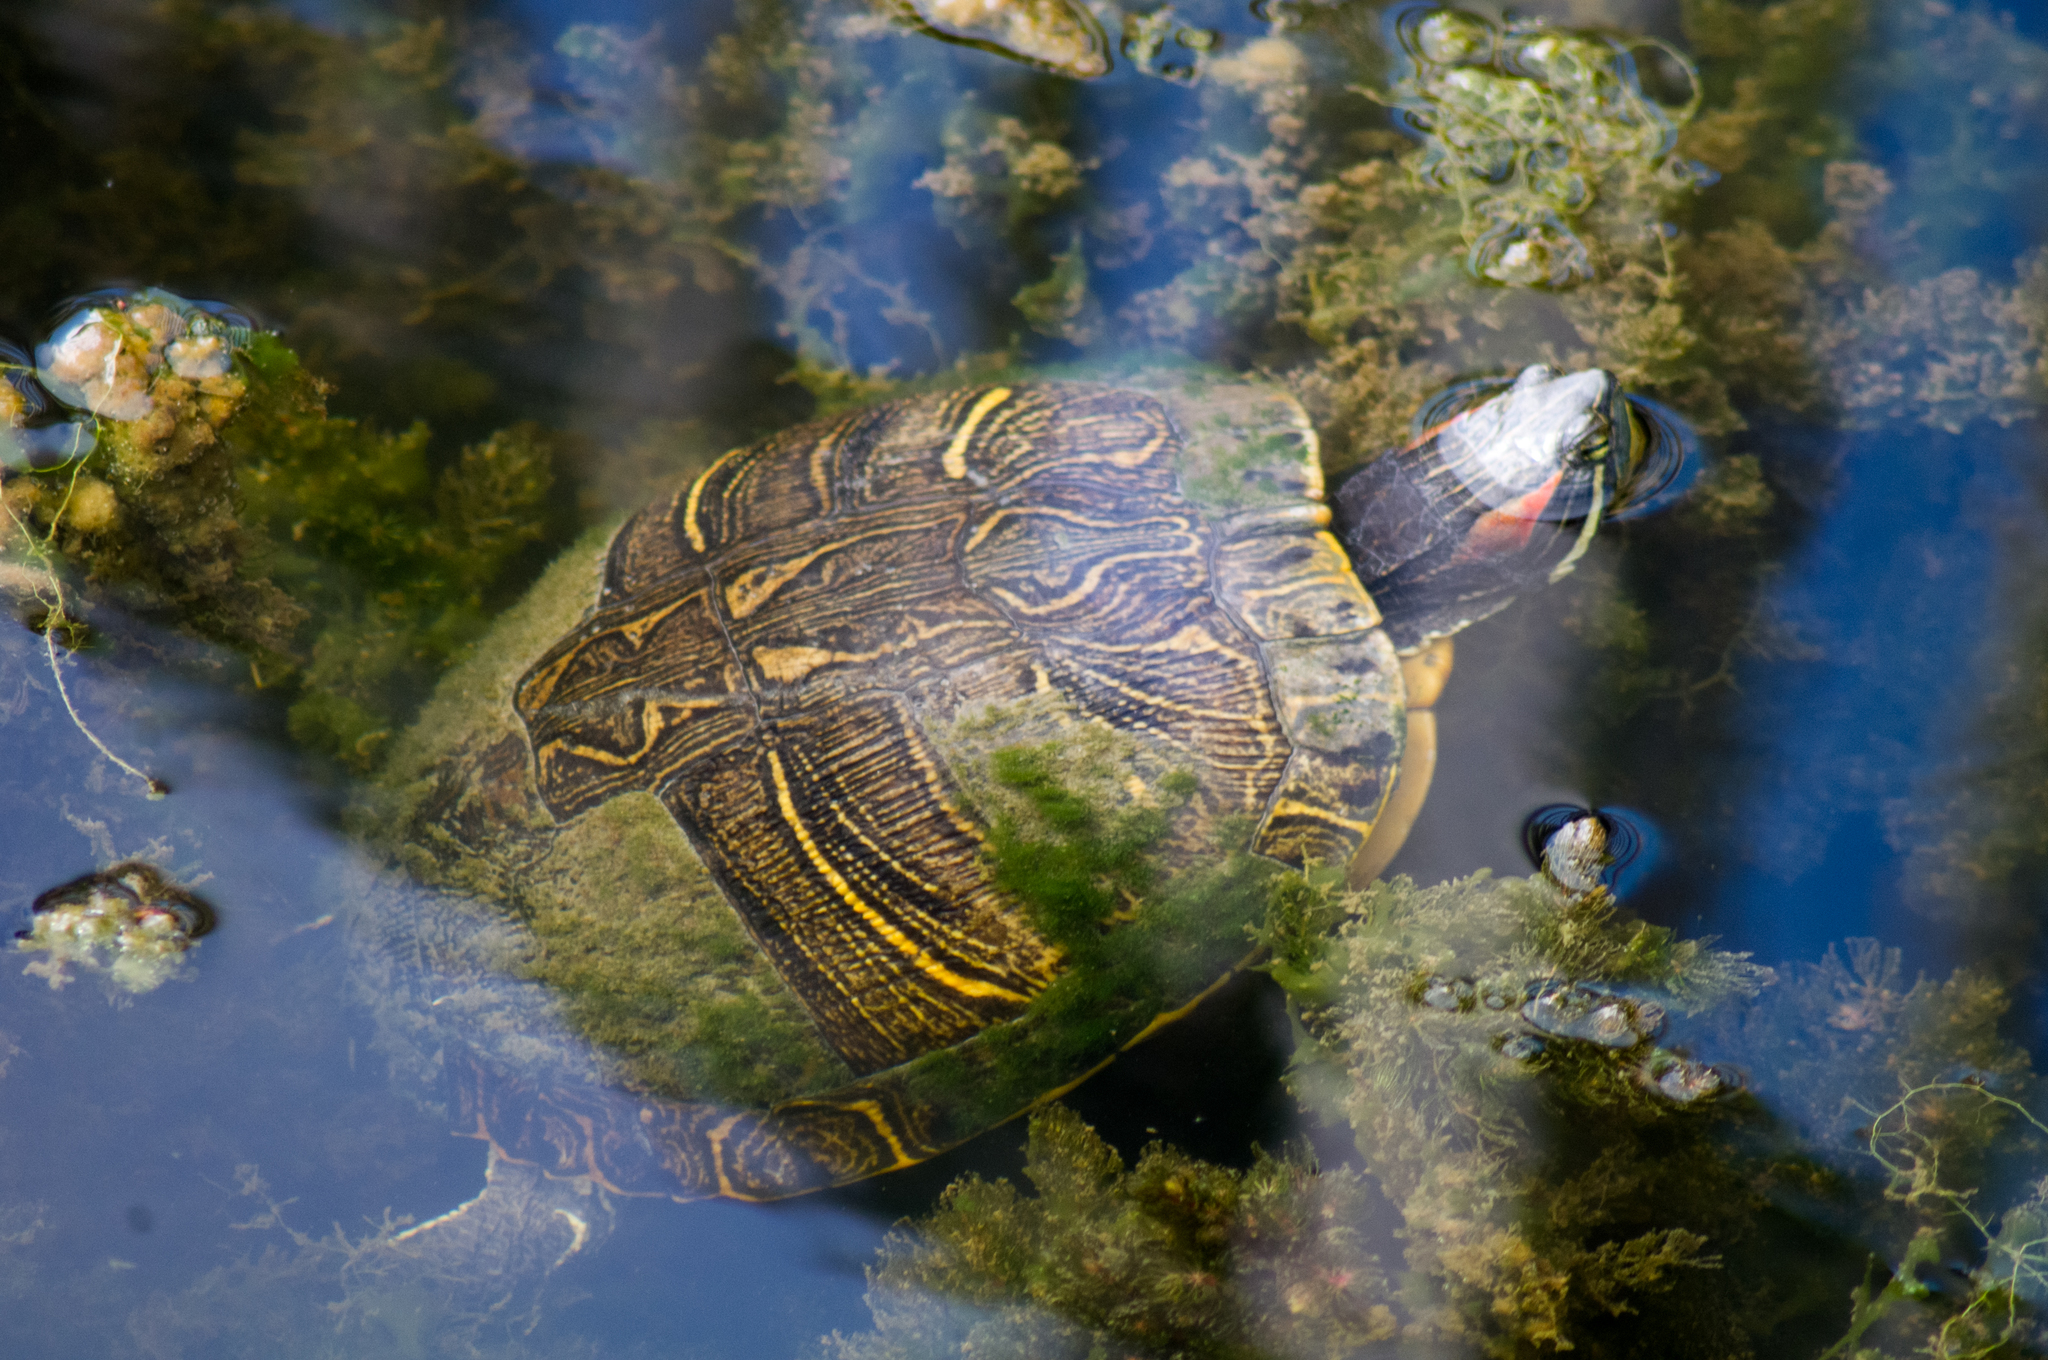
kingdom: Animalia
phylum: Chordata
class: Testudines
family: Emydidae
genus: Trachemys
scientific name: Trachemys scripta
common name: Slider
